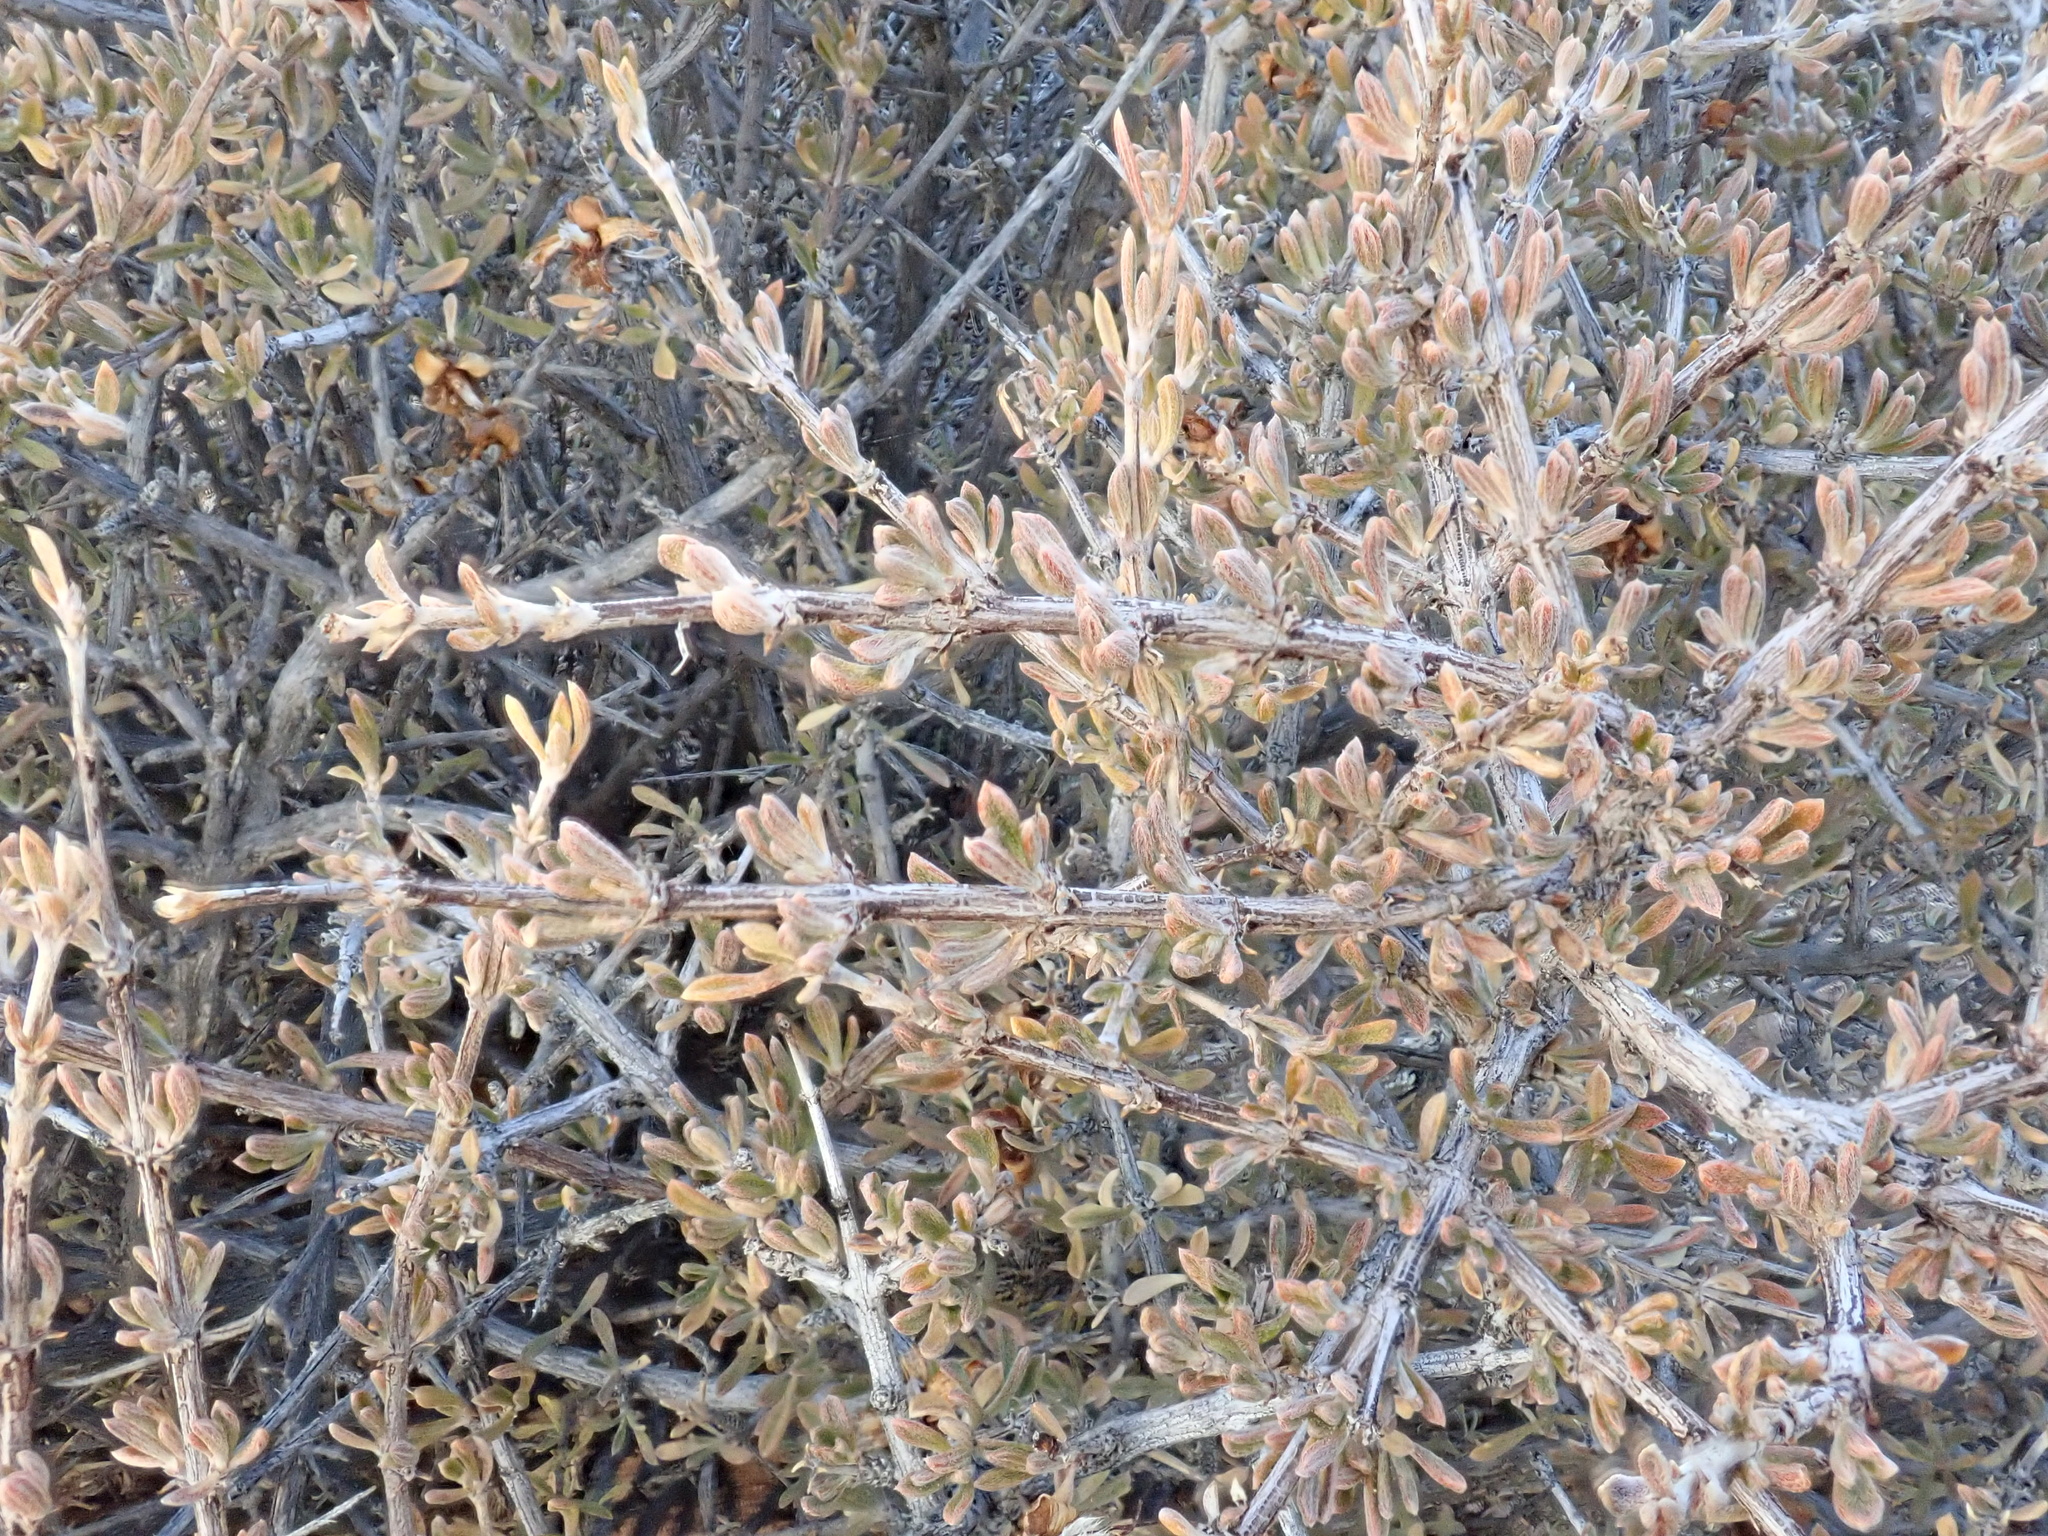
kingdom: Plantae
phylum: Tracheophyta
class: Magnoliopsida
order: Rosales
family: Rosaceae
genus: Coleogyne
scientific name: Coleogyne ramosissima
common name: Blackbrush
